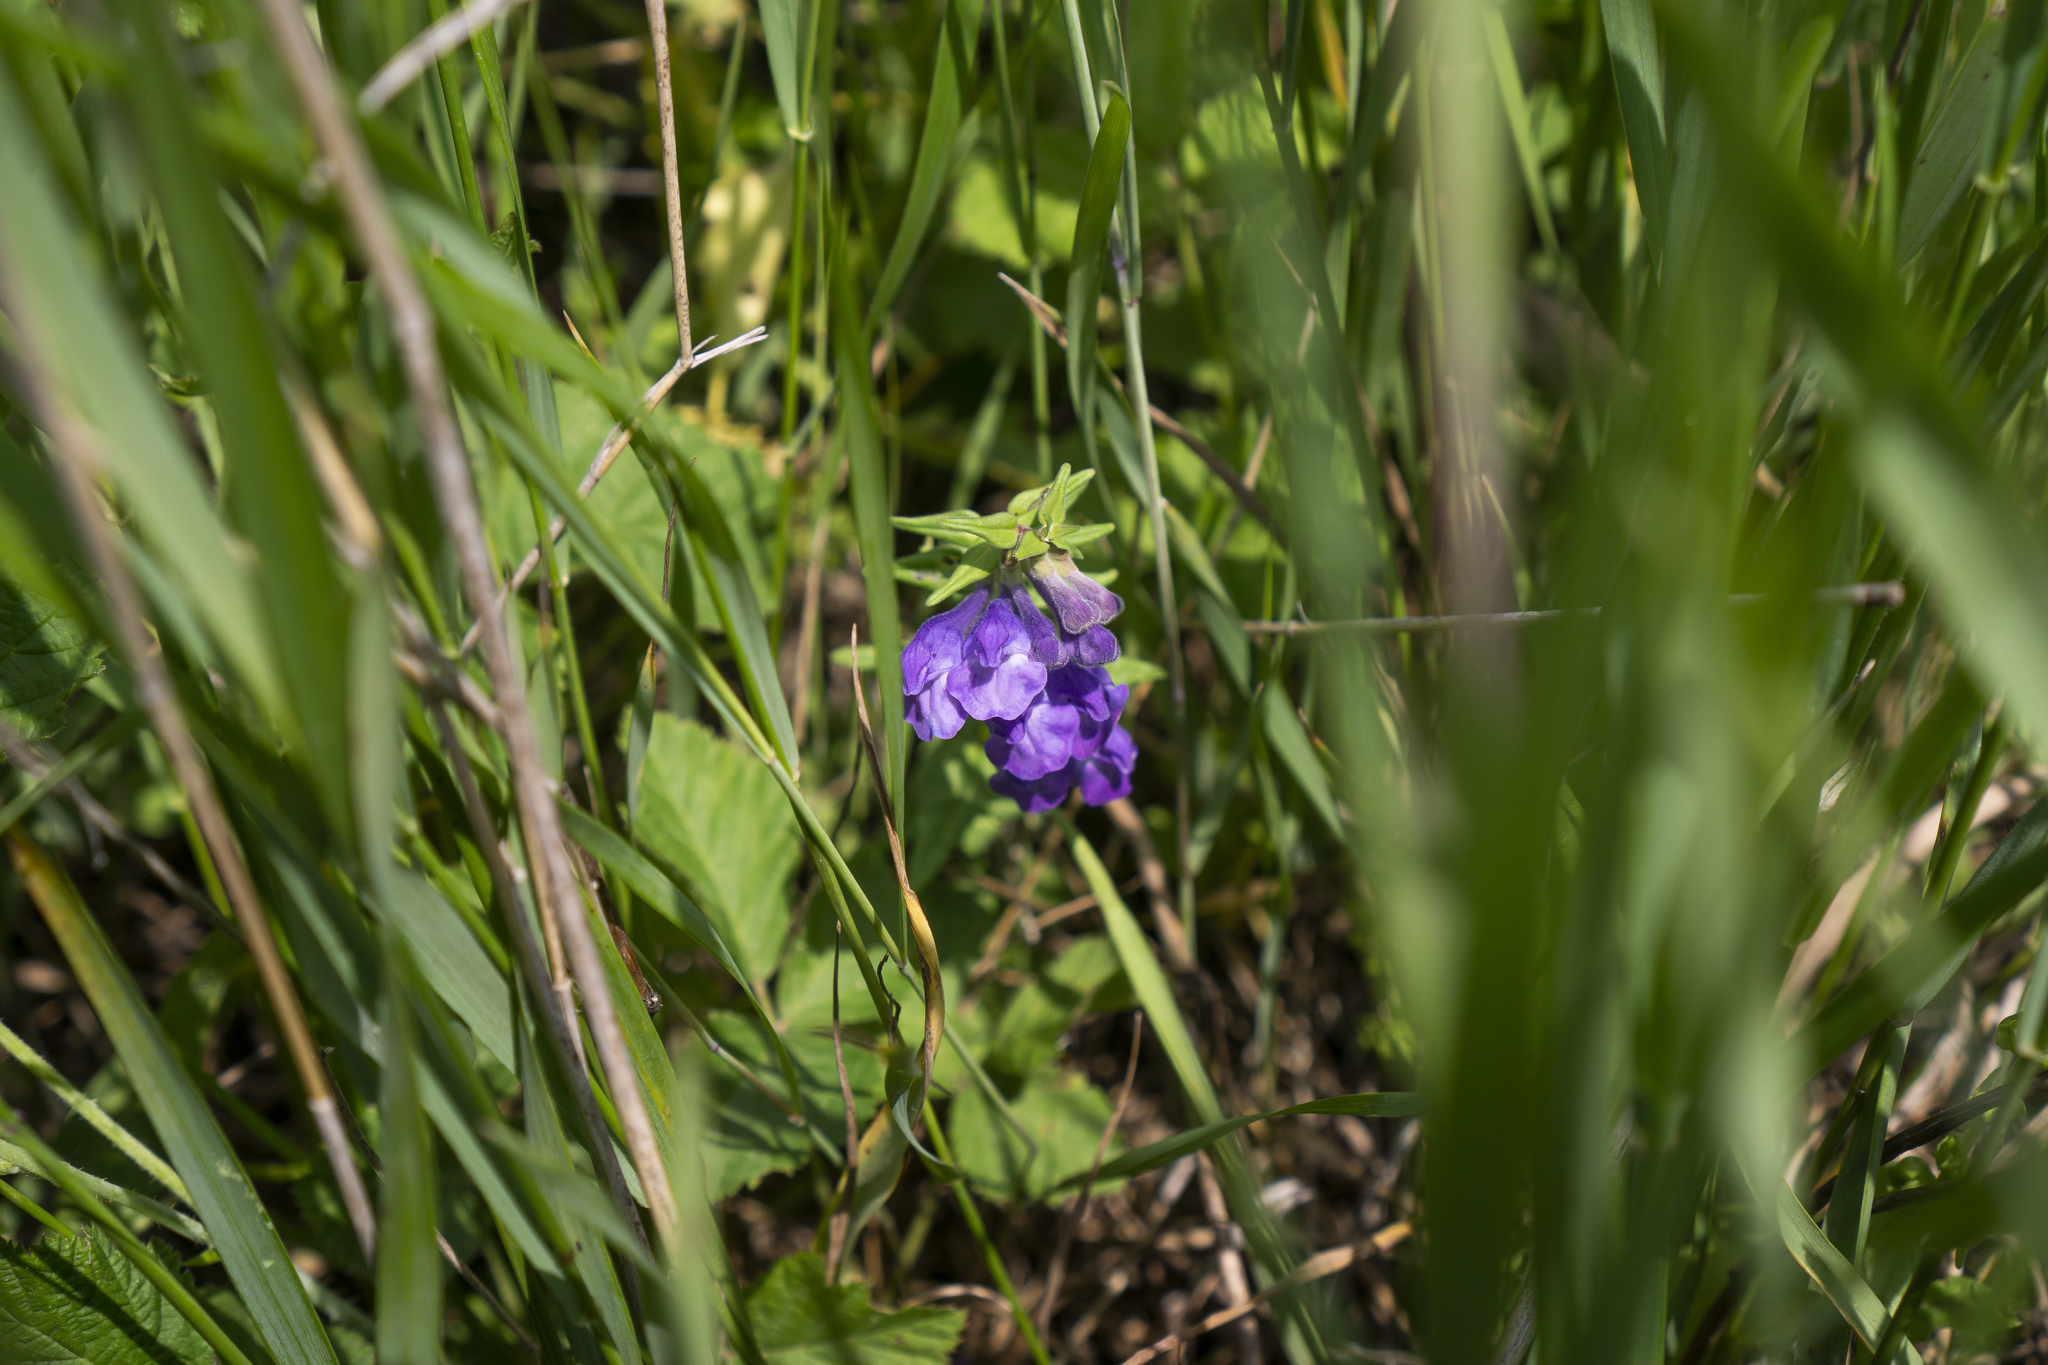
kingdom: Plantae
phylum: Tracheophyta
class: Magnoliopsida
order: Lamiales
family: Lamiaceae
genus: Scutellaria
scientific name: Scutellaria hastifolia
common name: Norfolk skullcap
